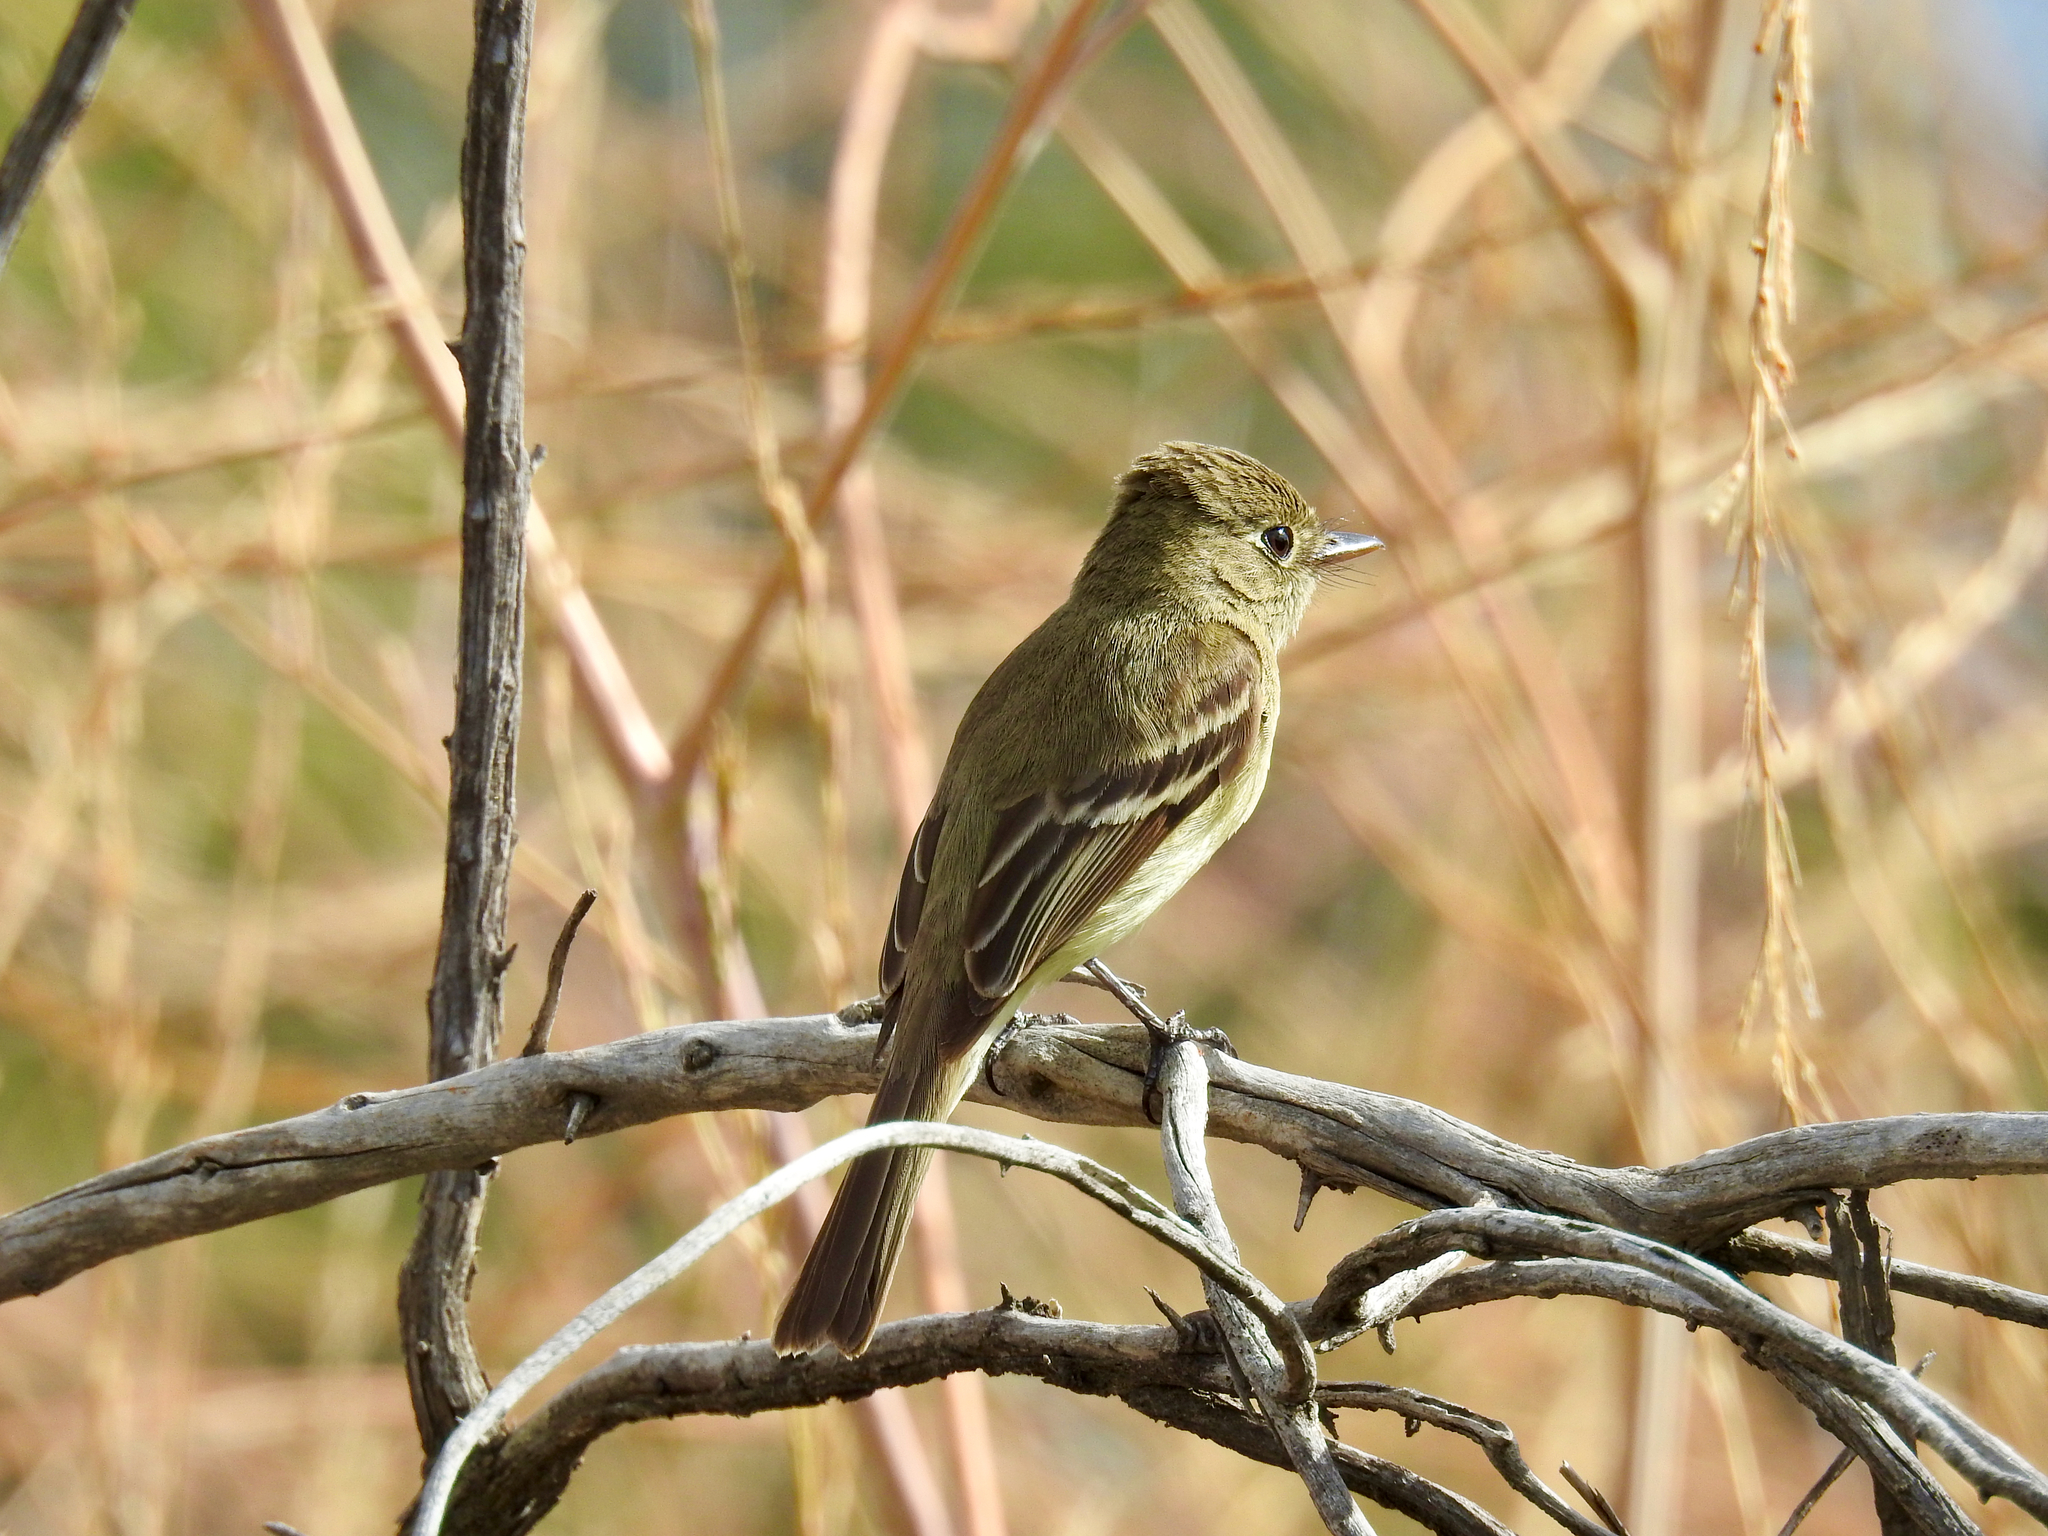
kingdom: Animalia
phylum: Chordata
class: Aves
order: Passeriformes
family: Tyrannidae
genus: Empidonax
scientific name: Empidonax difficilis
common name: Pacific-slope flycatcher
